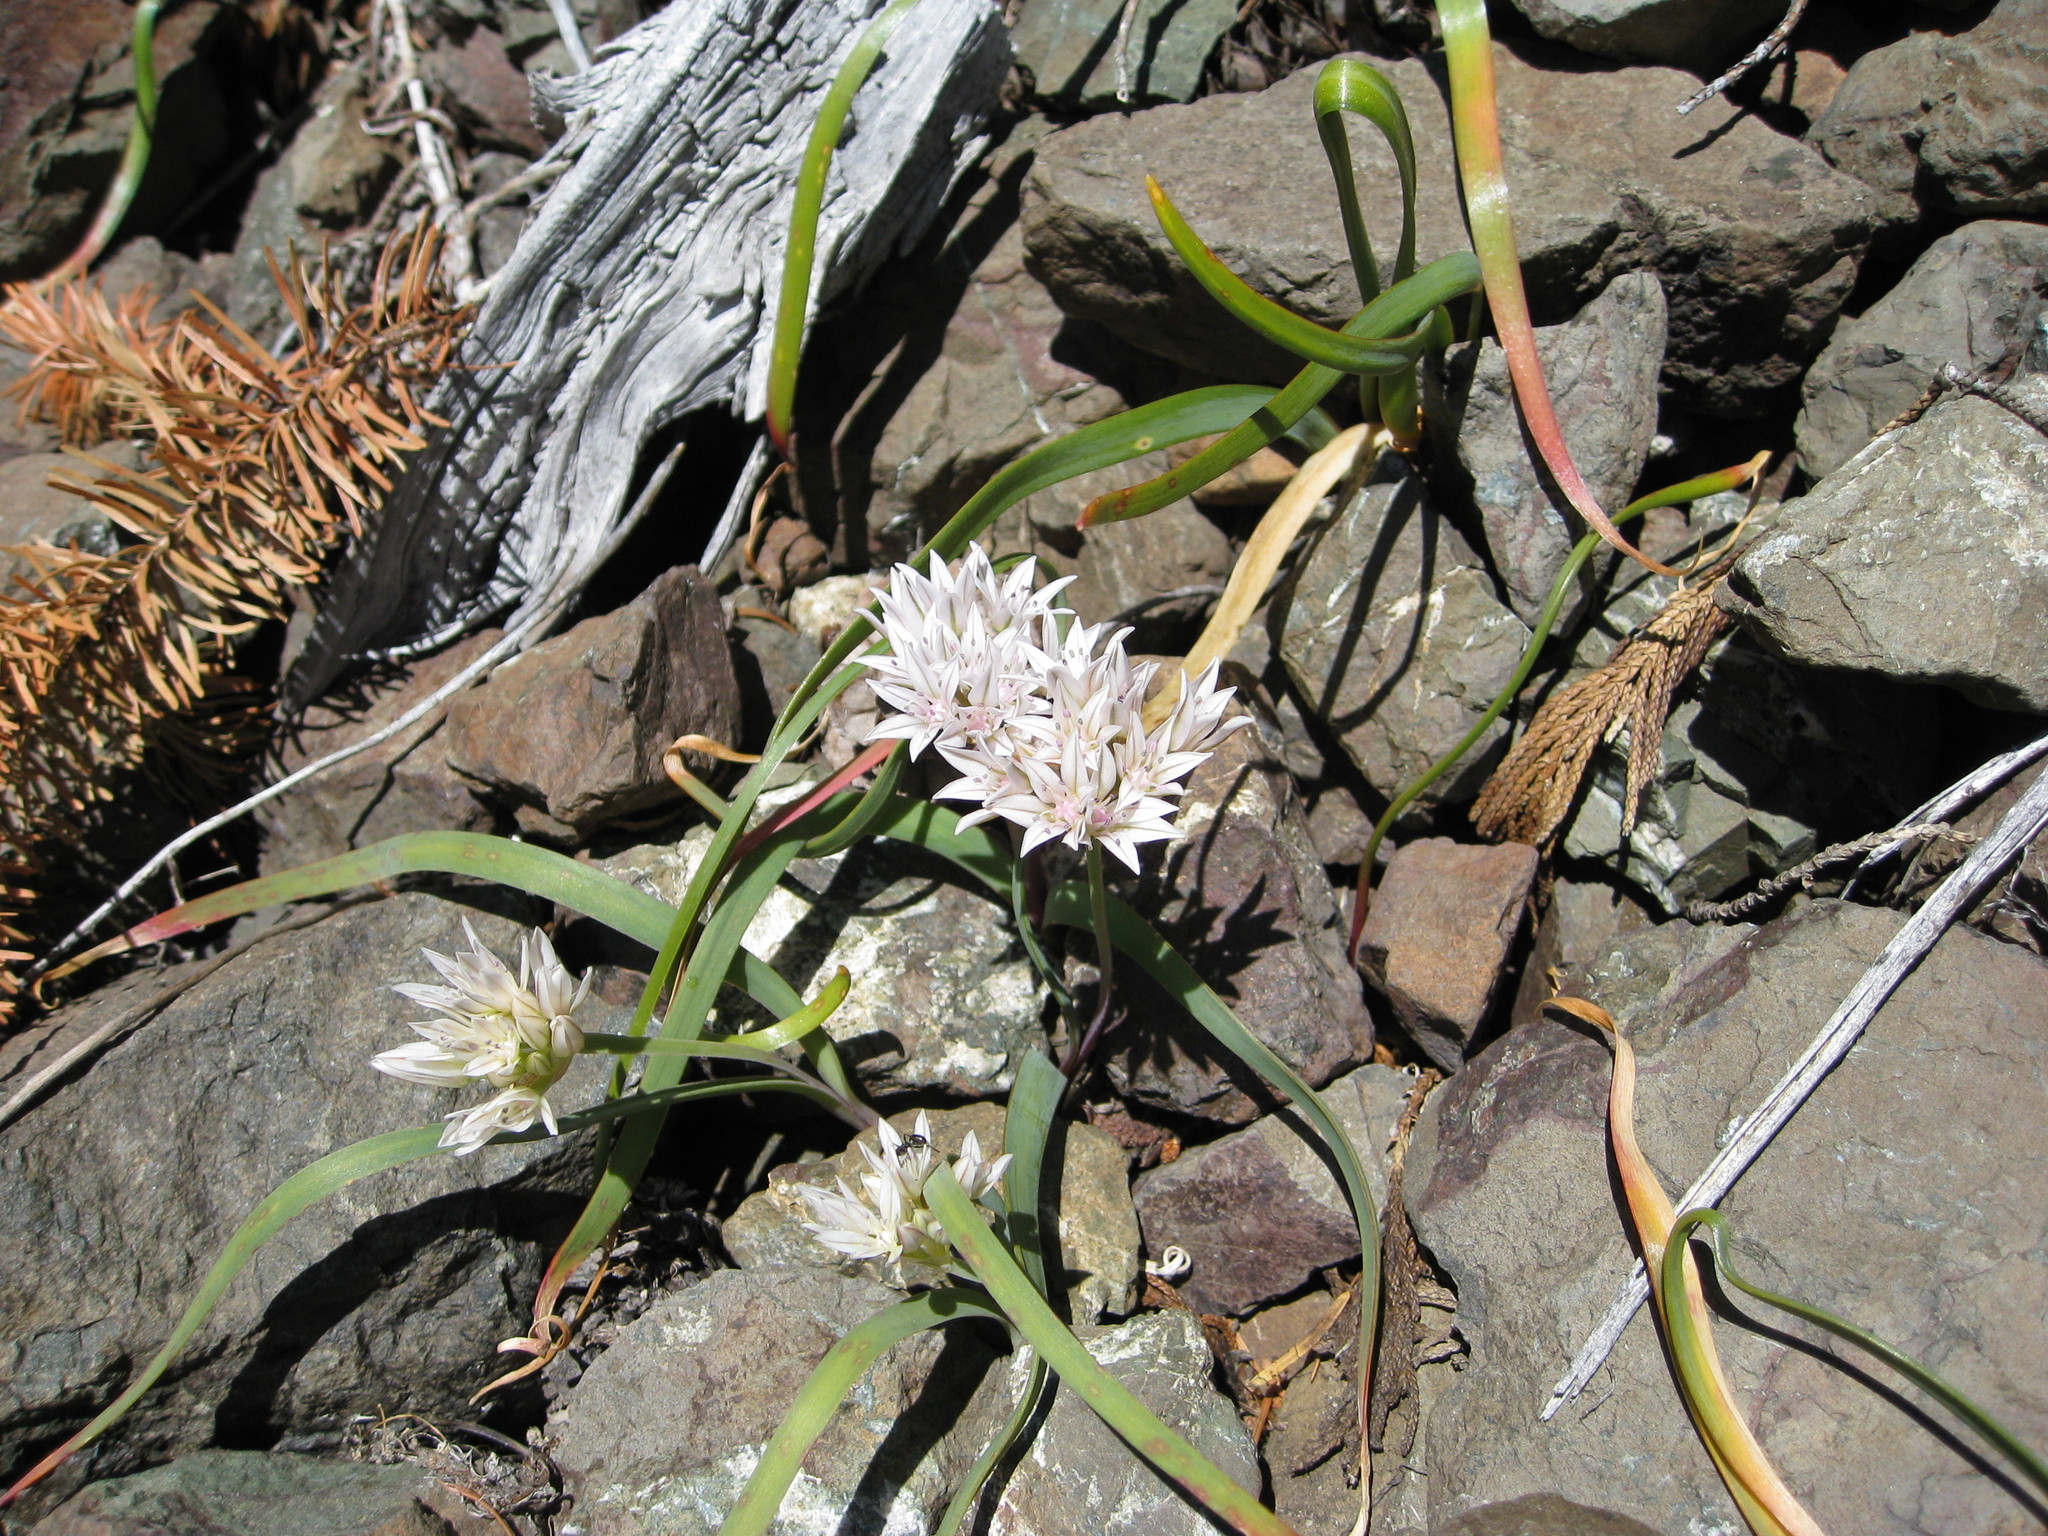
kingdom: Plantae
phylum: Tracheophyta
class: Liliopsida
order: Asparagales
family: Amaryllidaceae
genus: Allium
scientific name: Allium crenulatum
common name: Olympic onion
